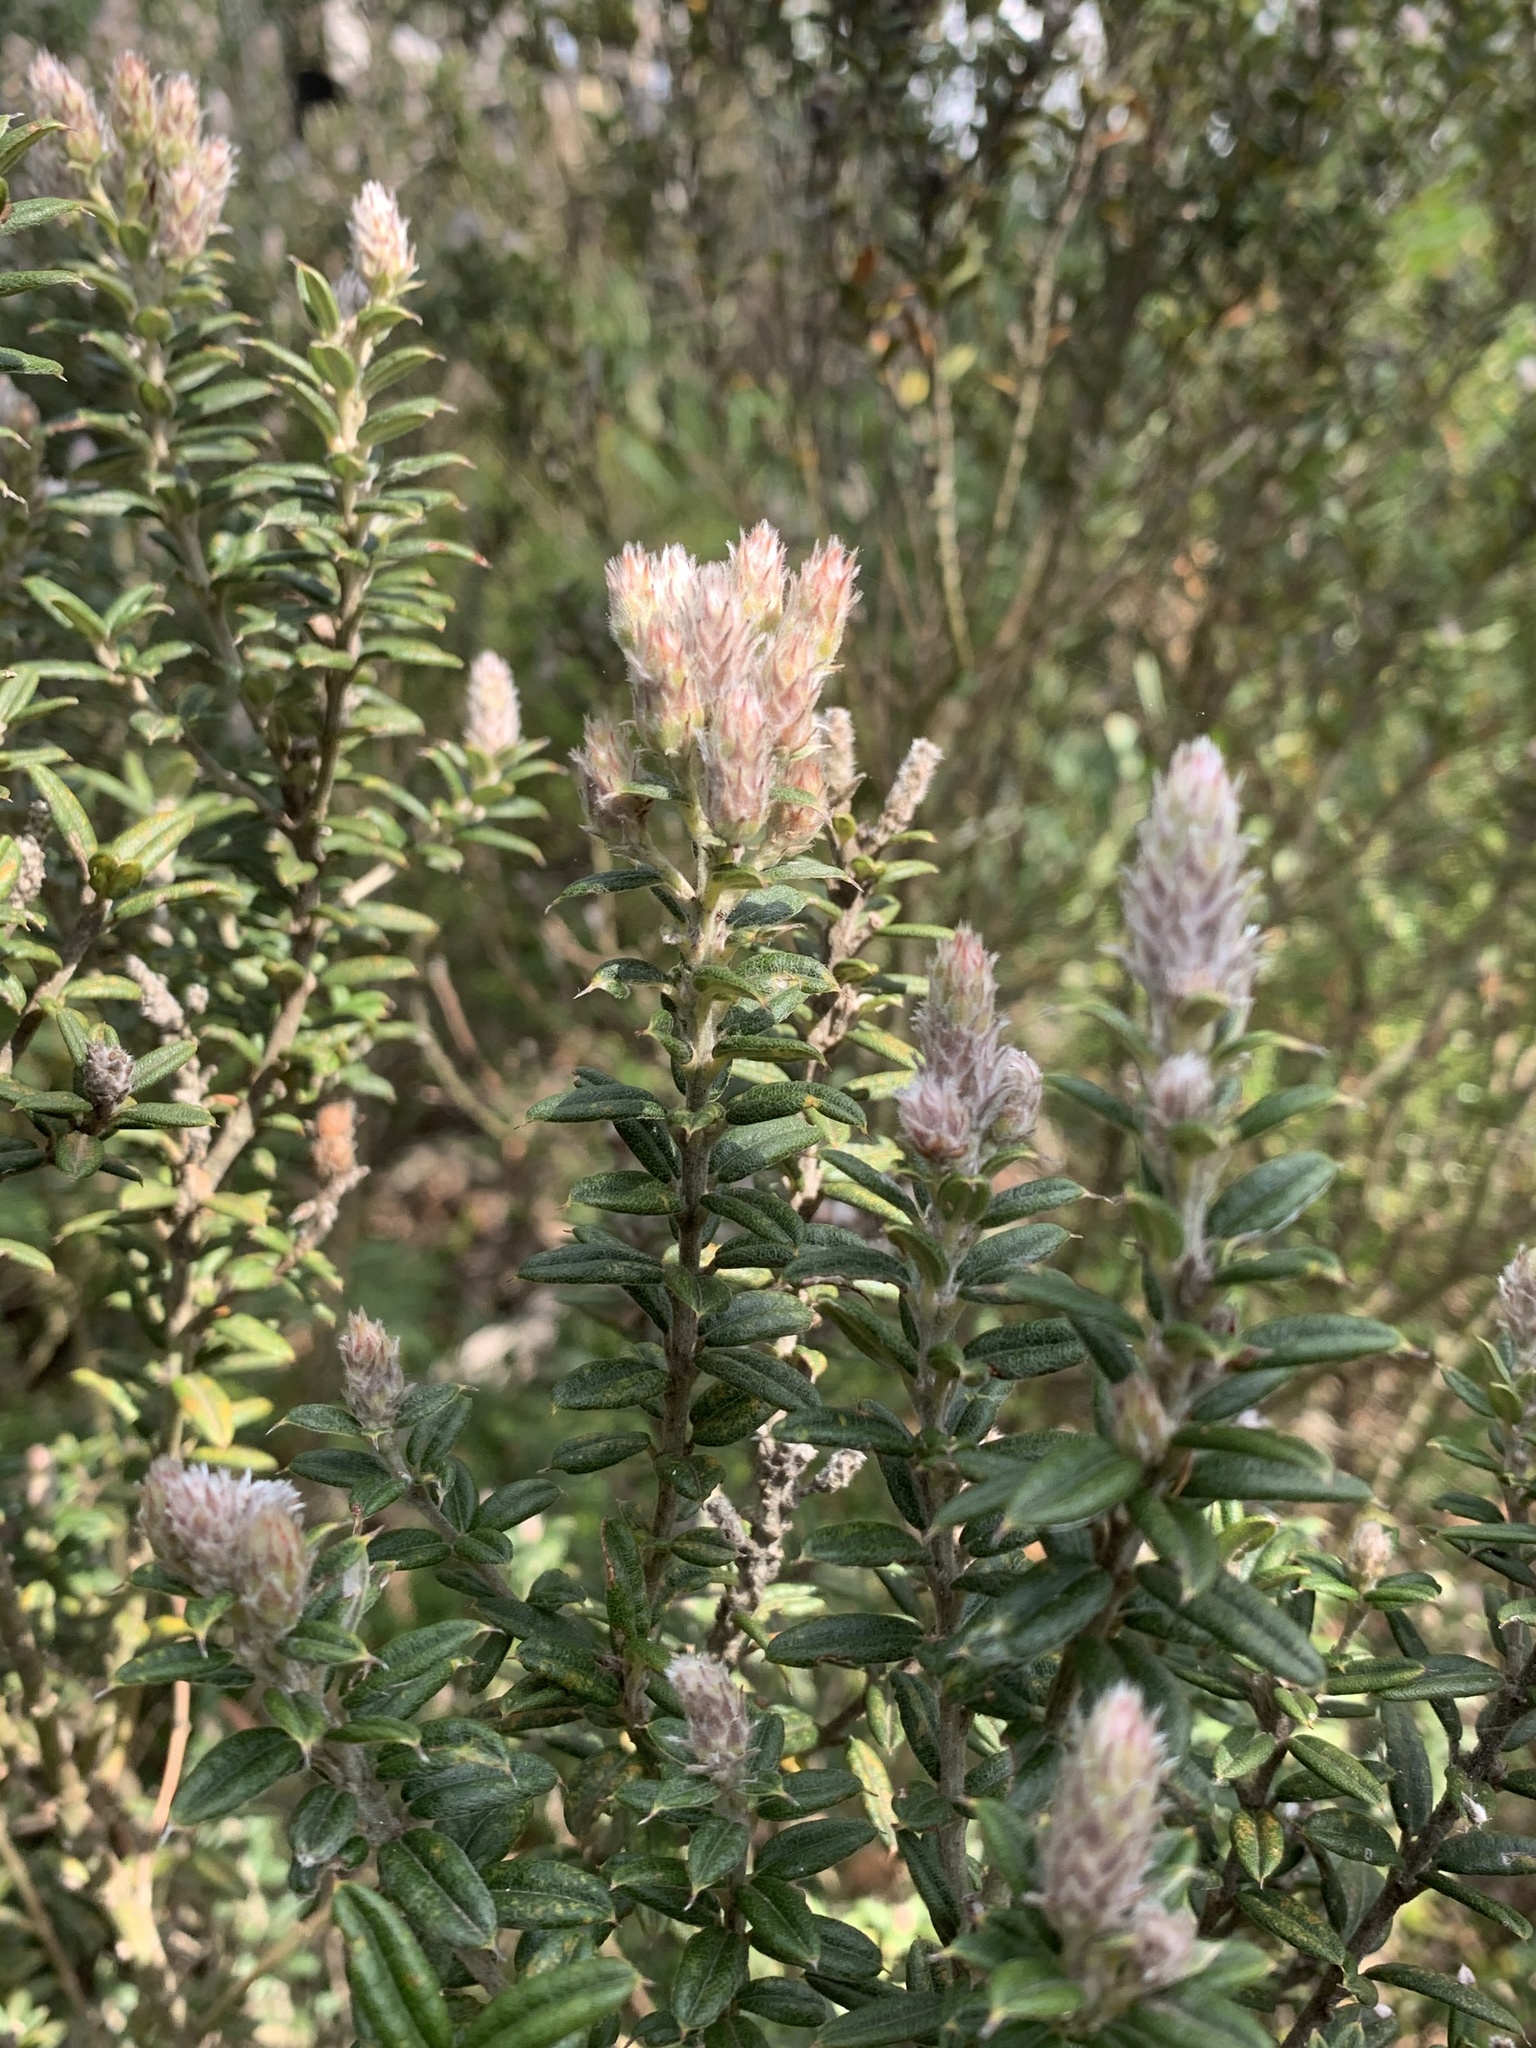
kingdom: Plantae
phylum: Tracheophyta
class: Magnoliopsida
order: Fabales
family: Fabaceae
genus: Oxylobium
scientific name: Oxylobium ellipticum
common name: Golden shaggy-pea
